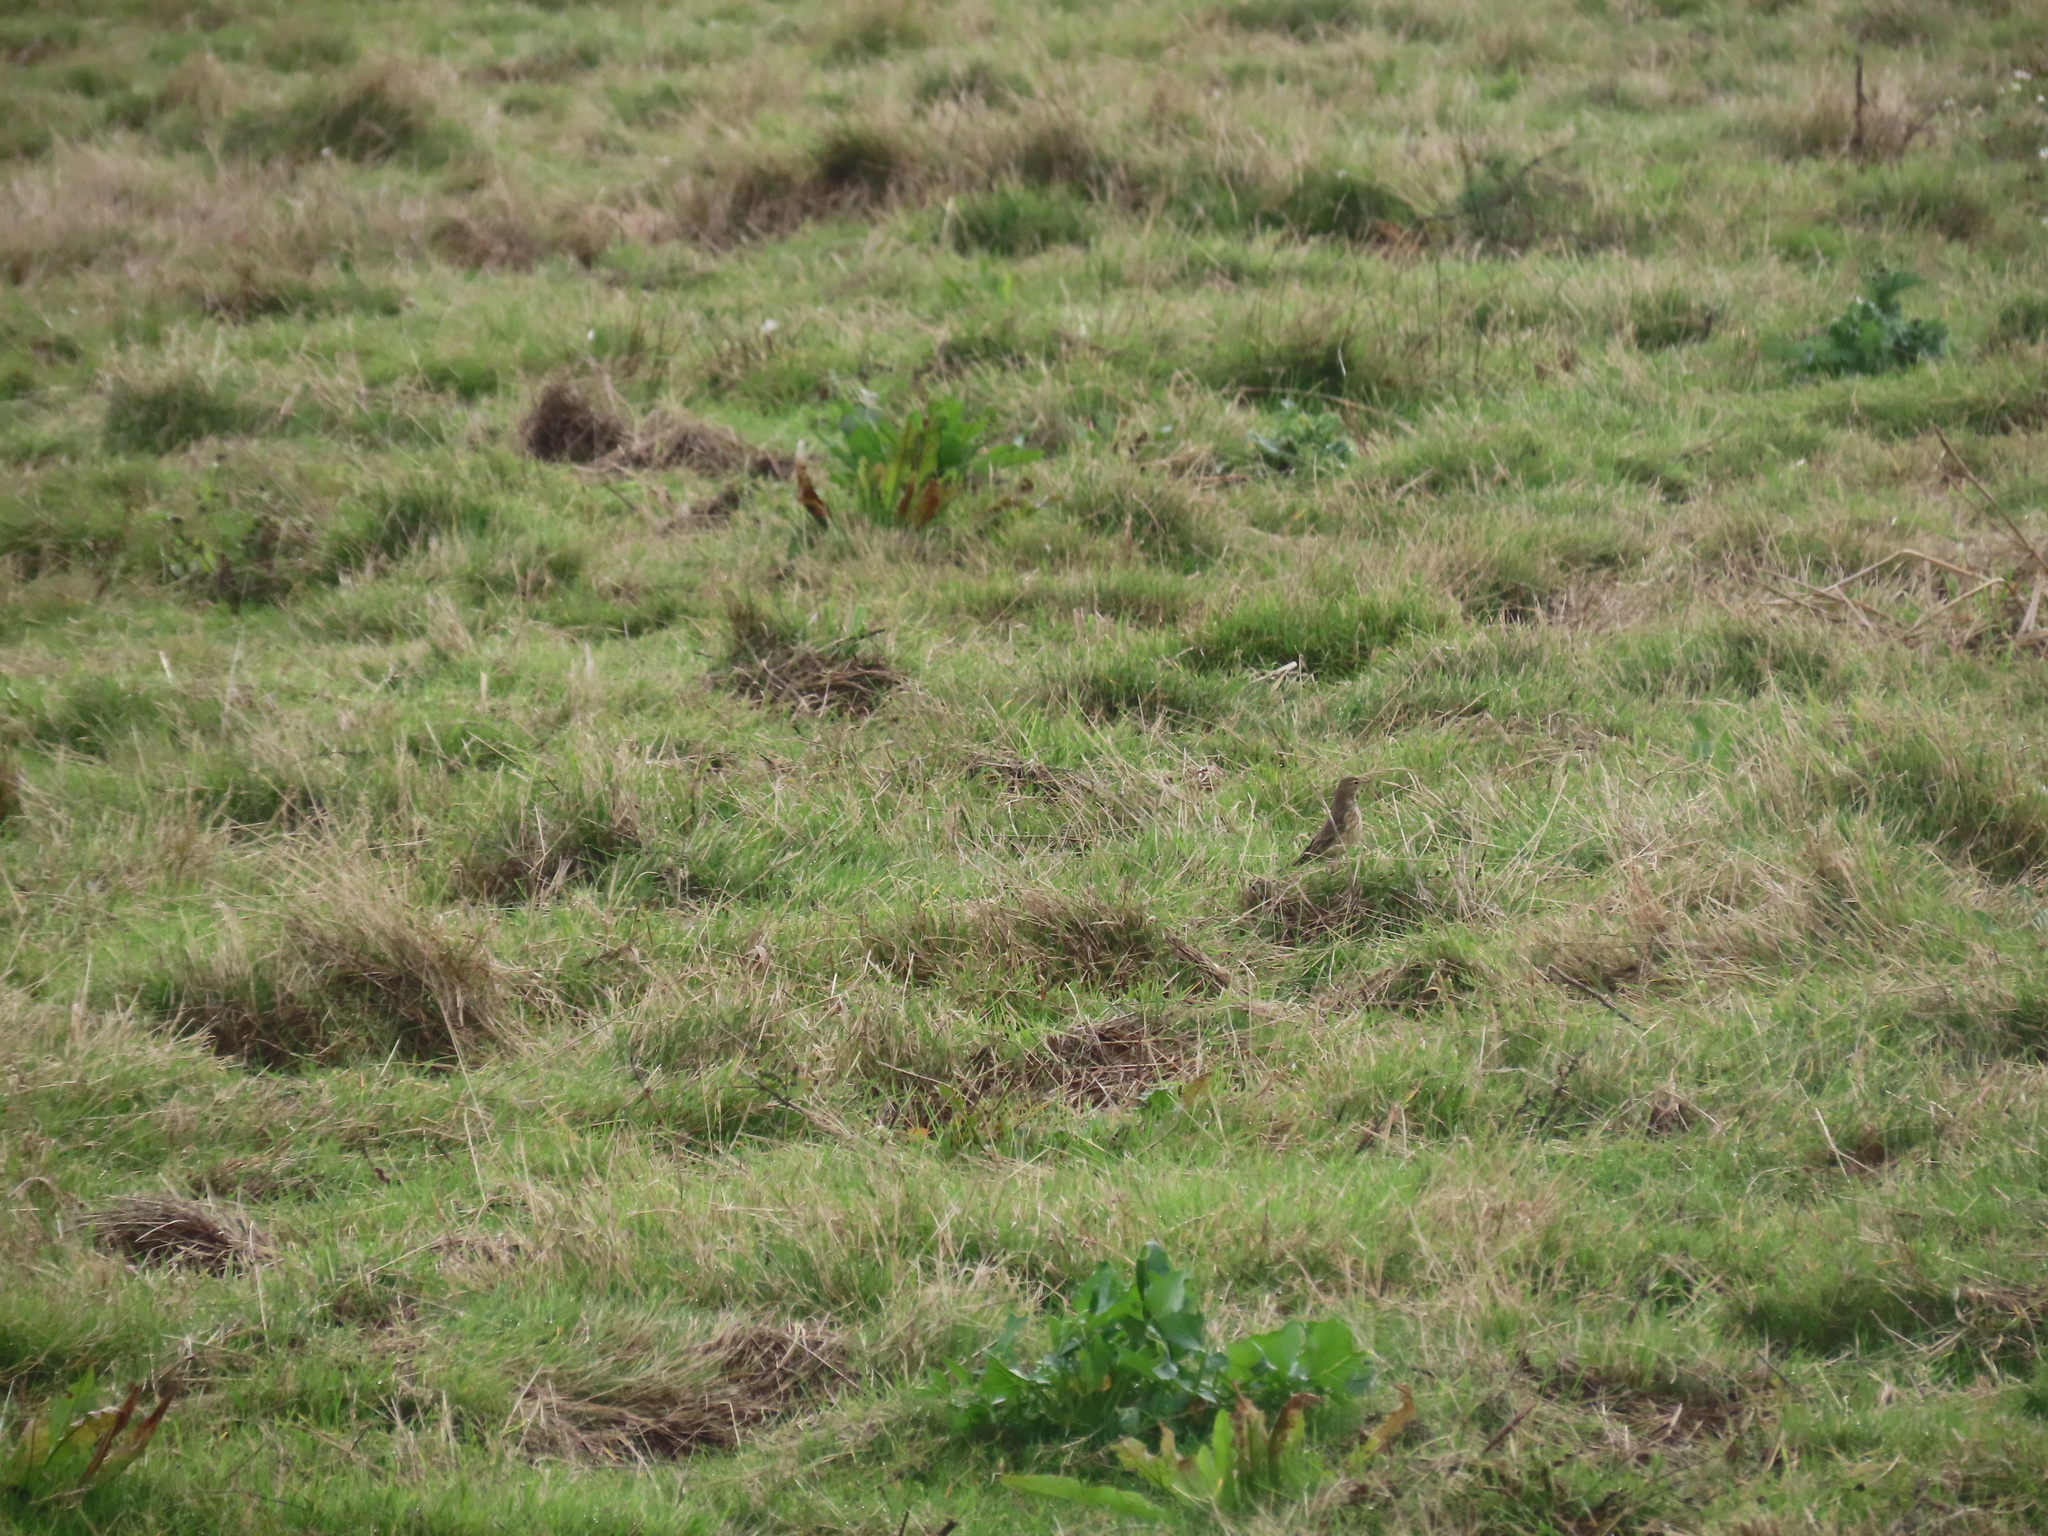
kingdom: Animalia
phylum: Chordata
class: Aves
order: Passeriformes
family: Motacillidae
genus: Anthus
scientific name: Anthus rubescens
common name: Buff-bellied pipit
